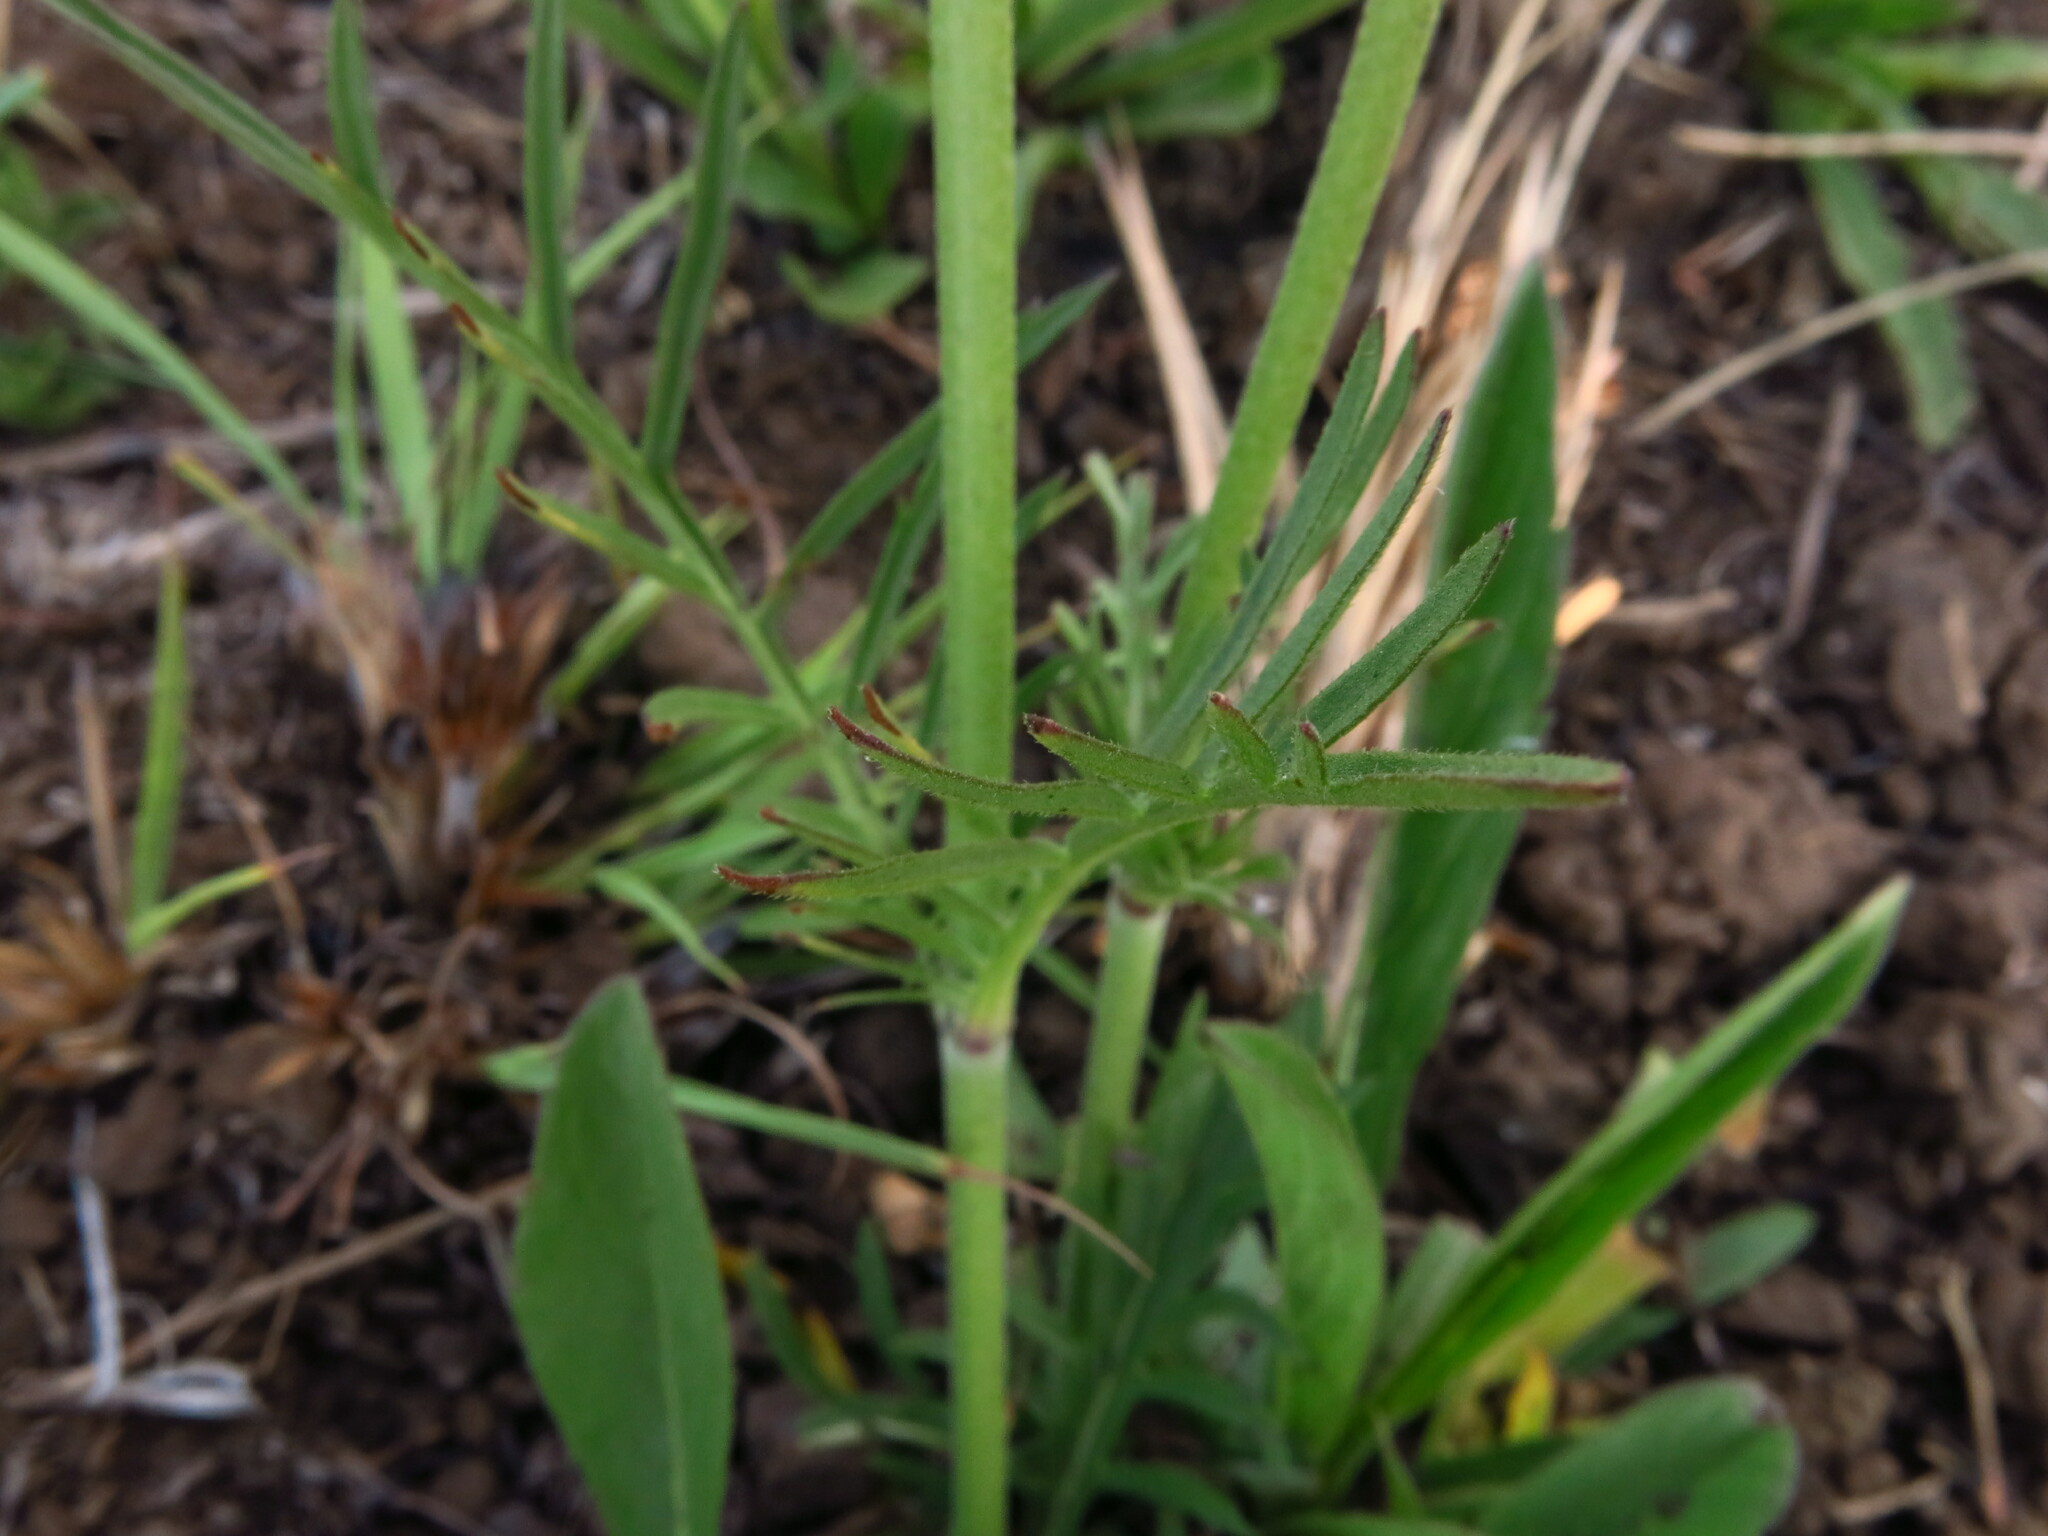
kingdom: Plantae
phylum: Tracheophyta
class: Magnoliopsida
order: Dipsacales
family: Caprifoliaceae
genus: Scabiosa
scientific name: Scabiosa columbaria
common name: Small scabious
